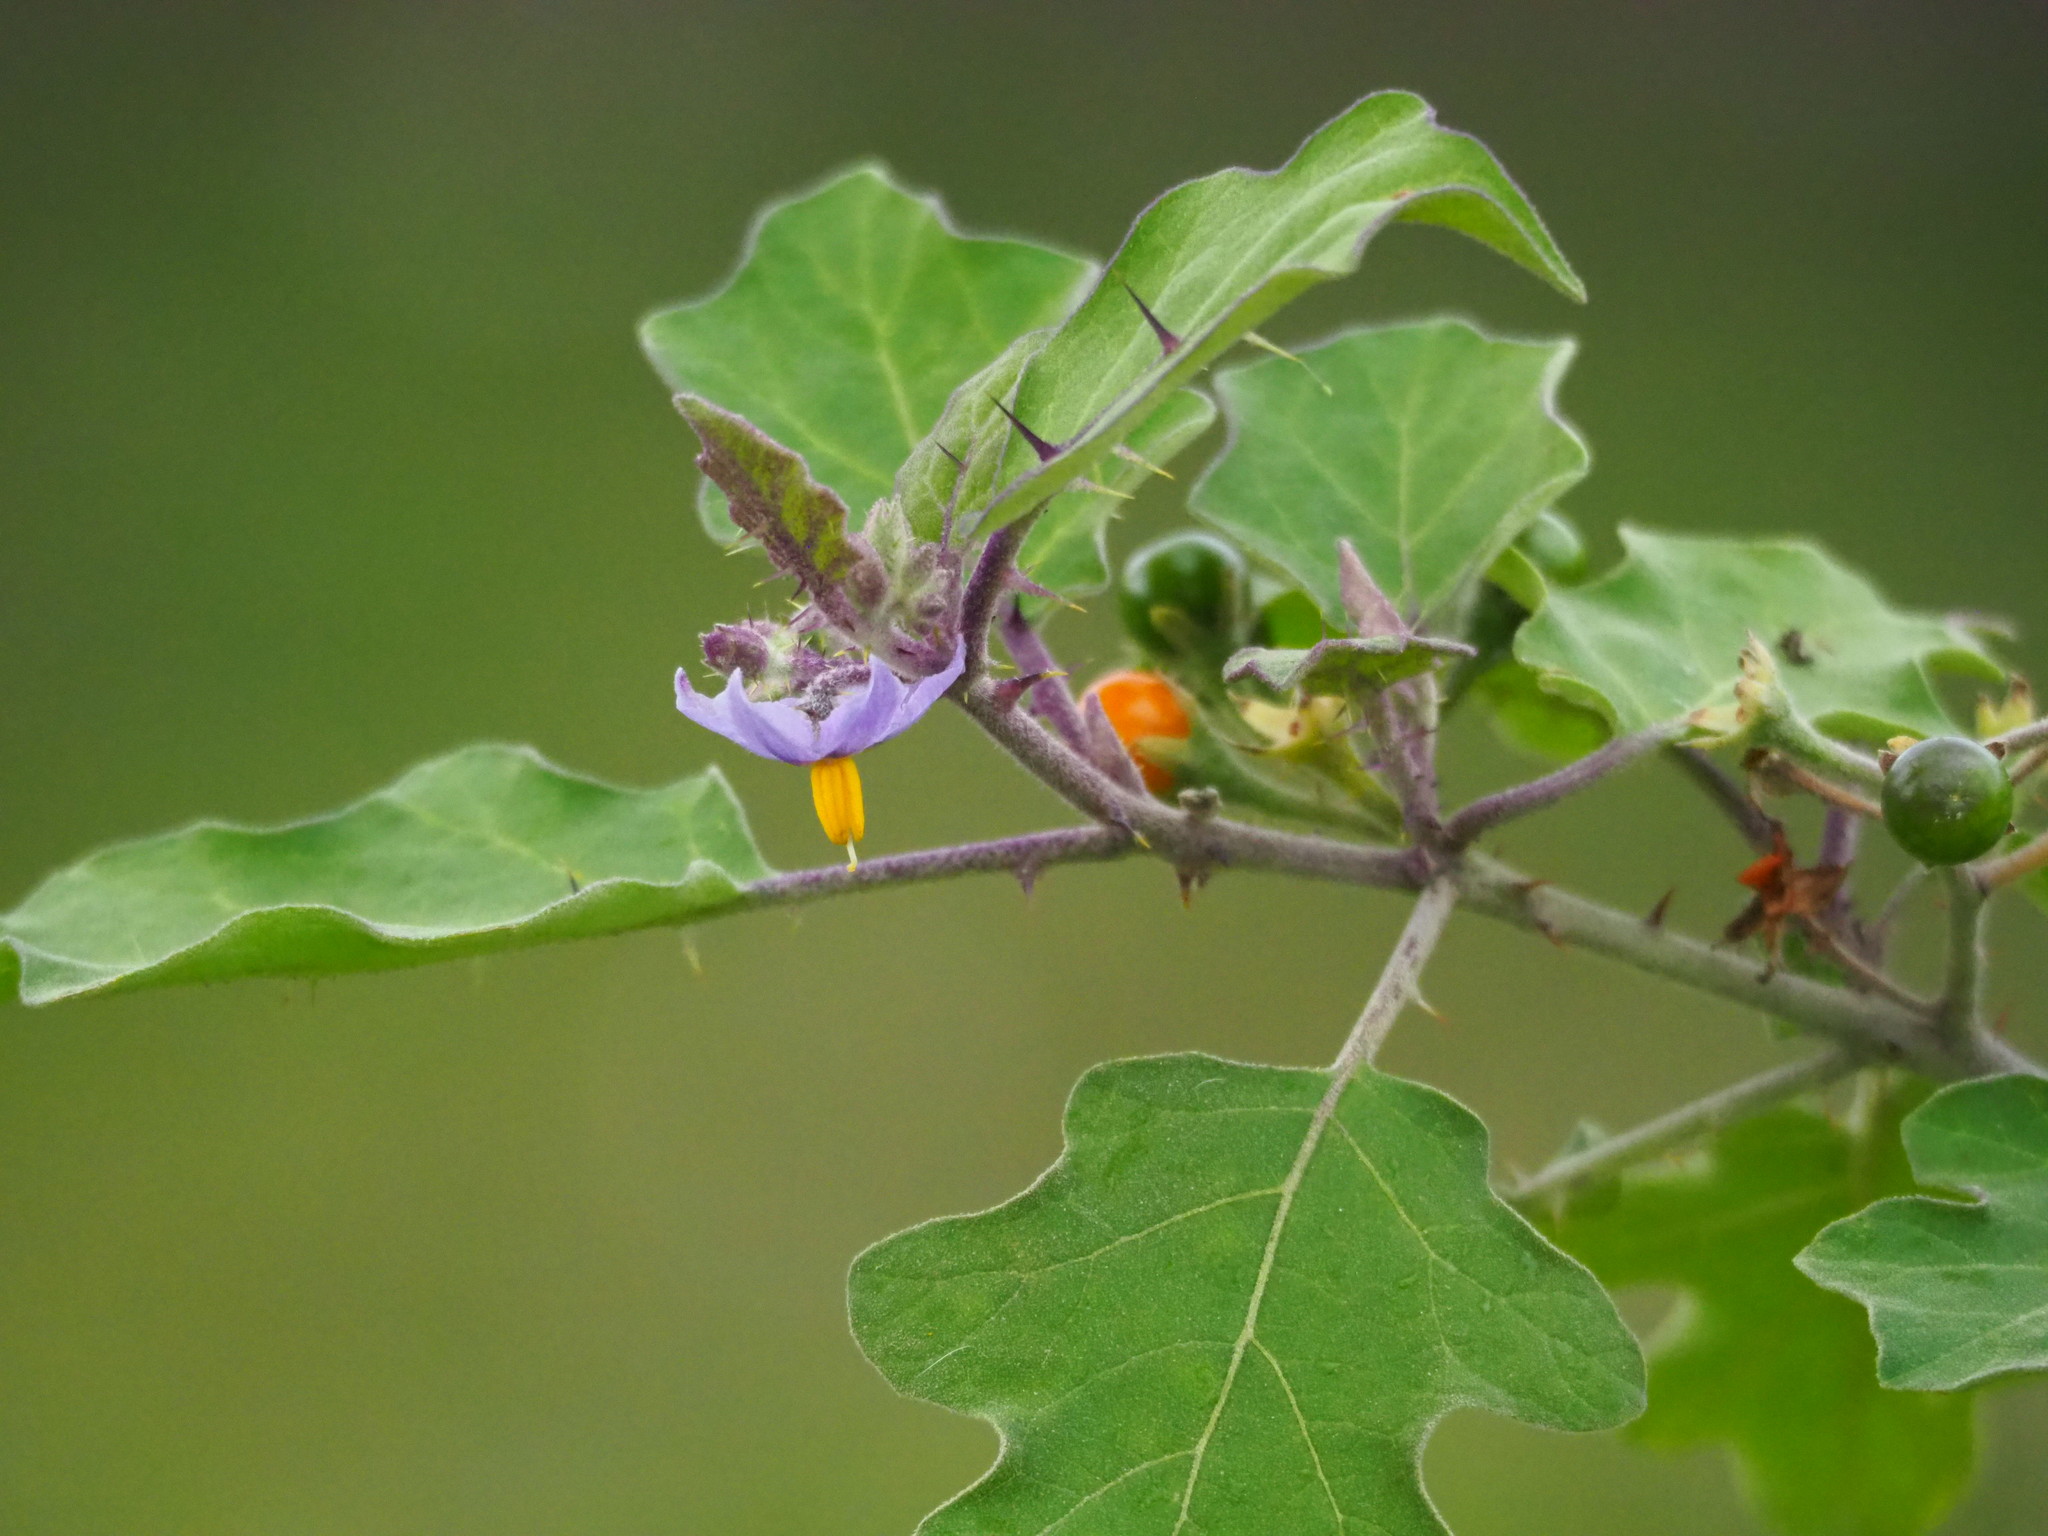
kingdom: Plantae
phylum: Tracheophyta
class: Magnoliopsida
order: Solanales
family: Solanaceae
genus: Solanum
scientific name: Solanum violaceum
